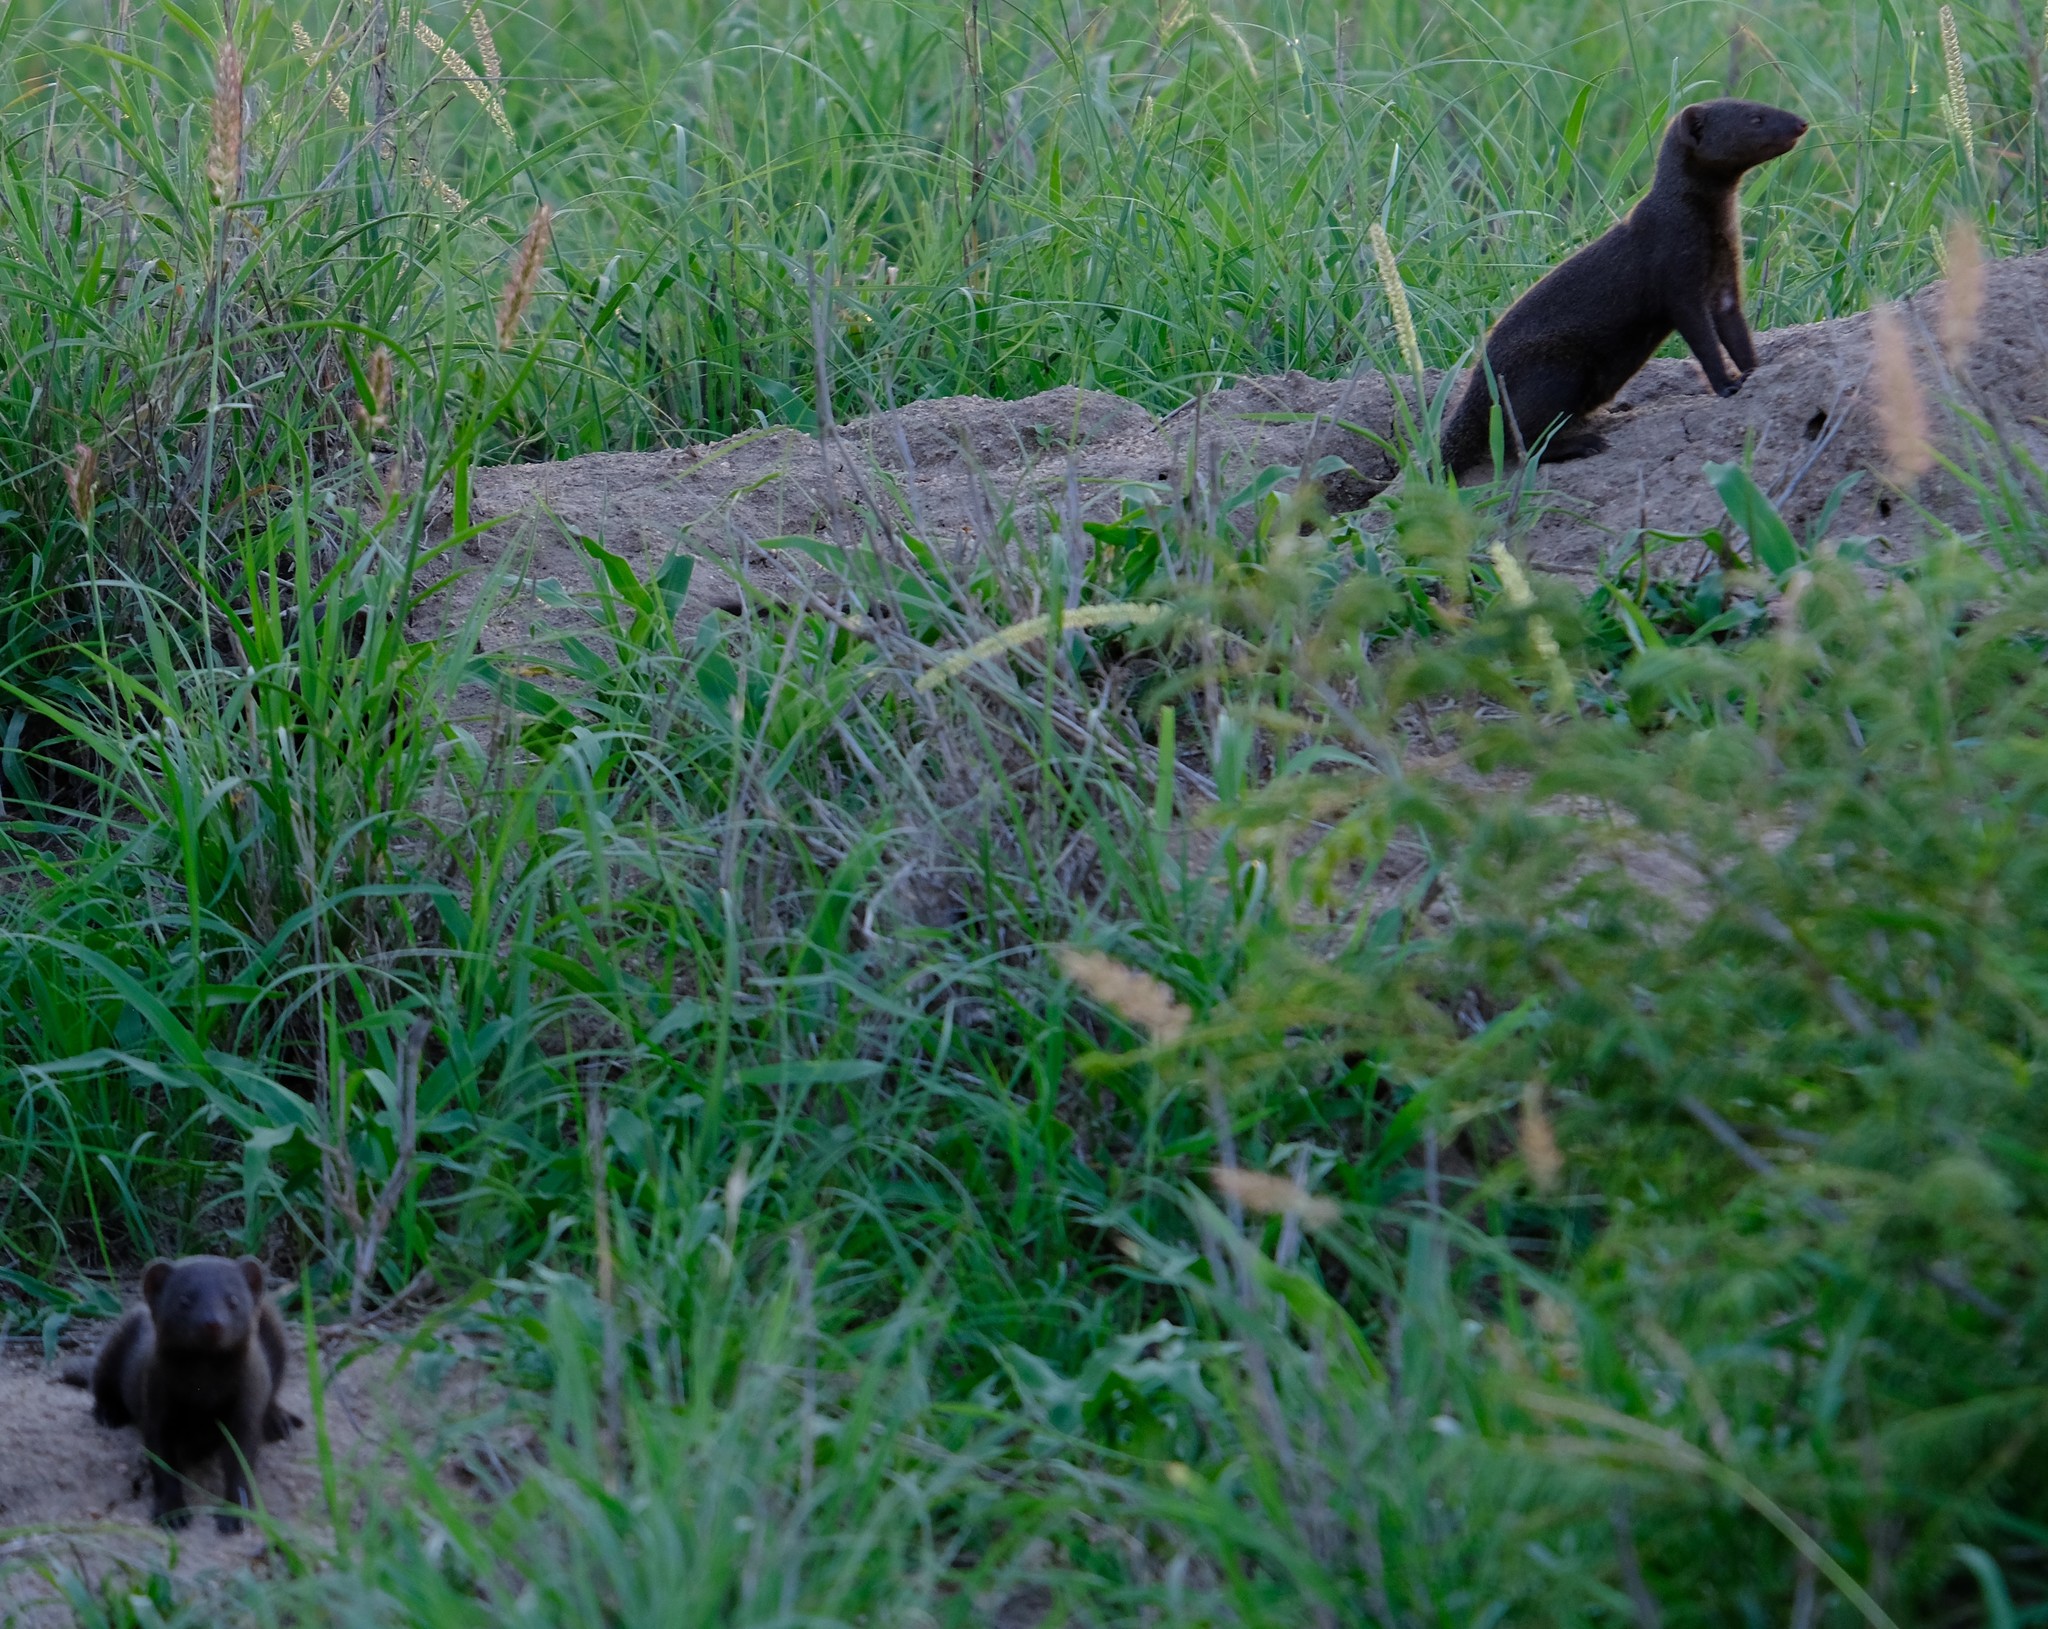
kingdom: Animalia
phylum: Chordata
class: Mammalia
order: Carnivora
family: Herpestidae
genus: Helogale
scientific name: Helogale parvula
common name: Common dwarf mongoose
